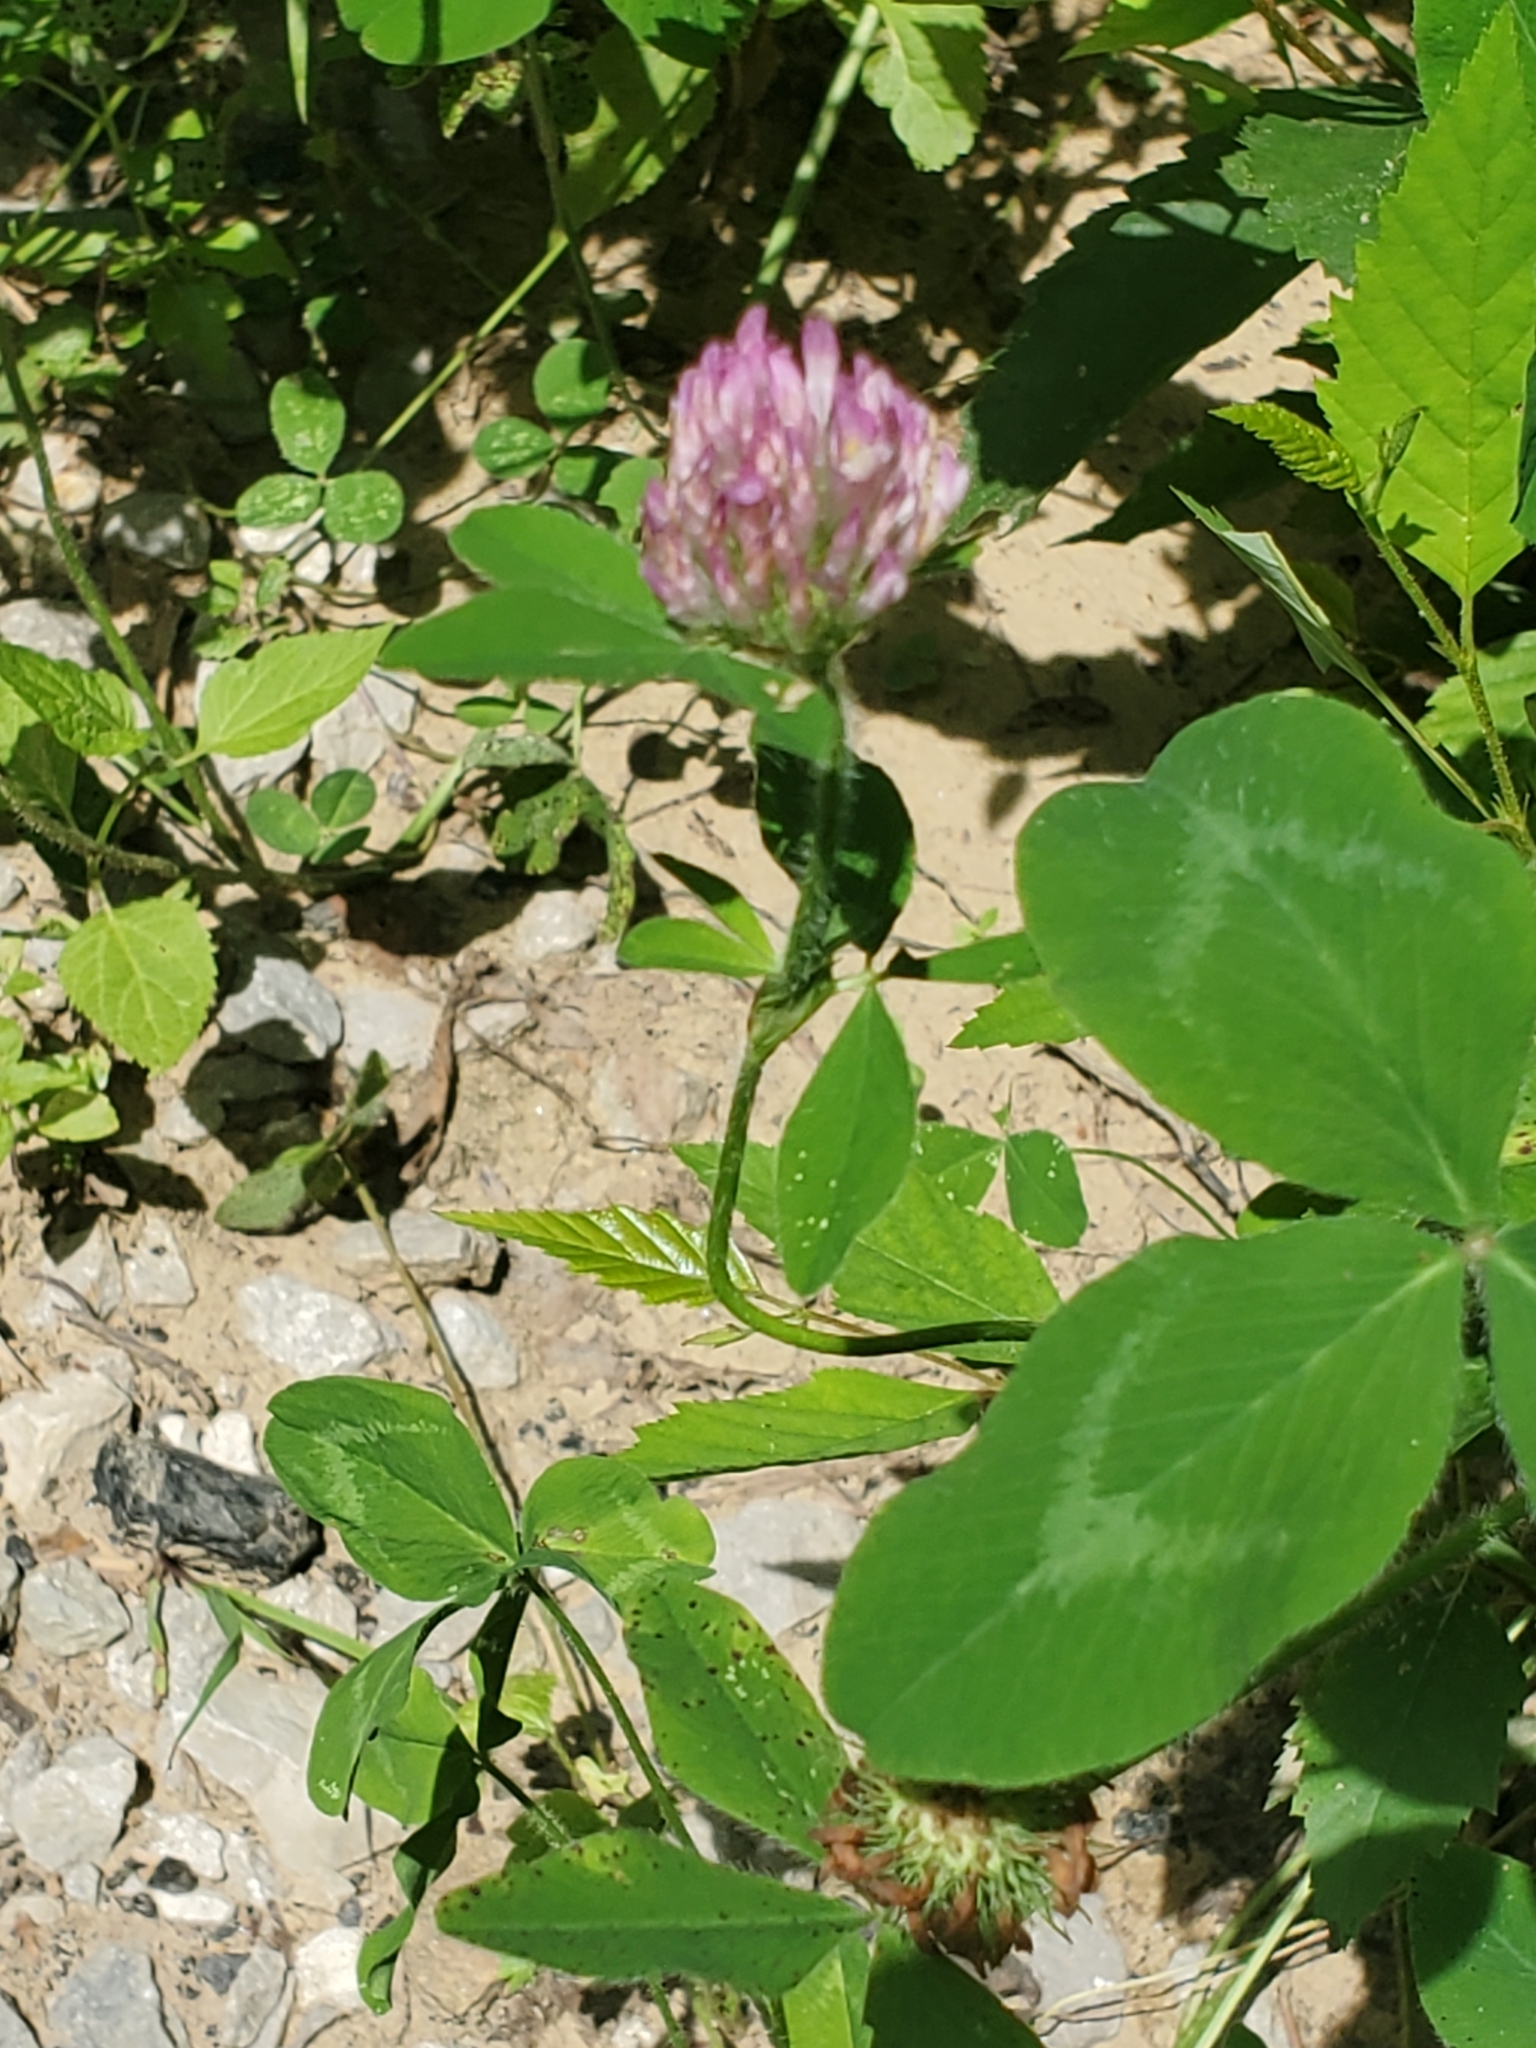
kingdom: Plantae
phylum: Tracheophyta
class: Magnoliopsida
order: Fabales
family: Fabaceae
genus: Trifolium
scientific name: Trifolium pratense
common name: Red clover
